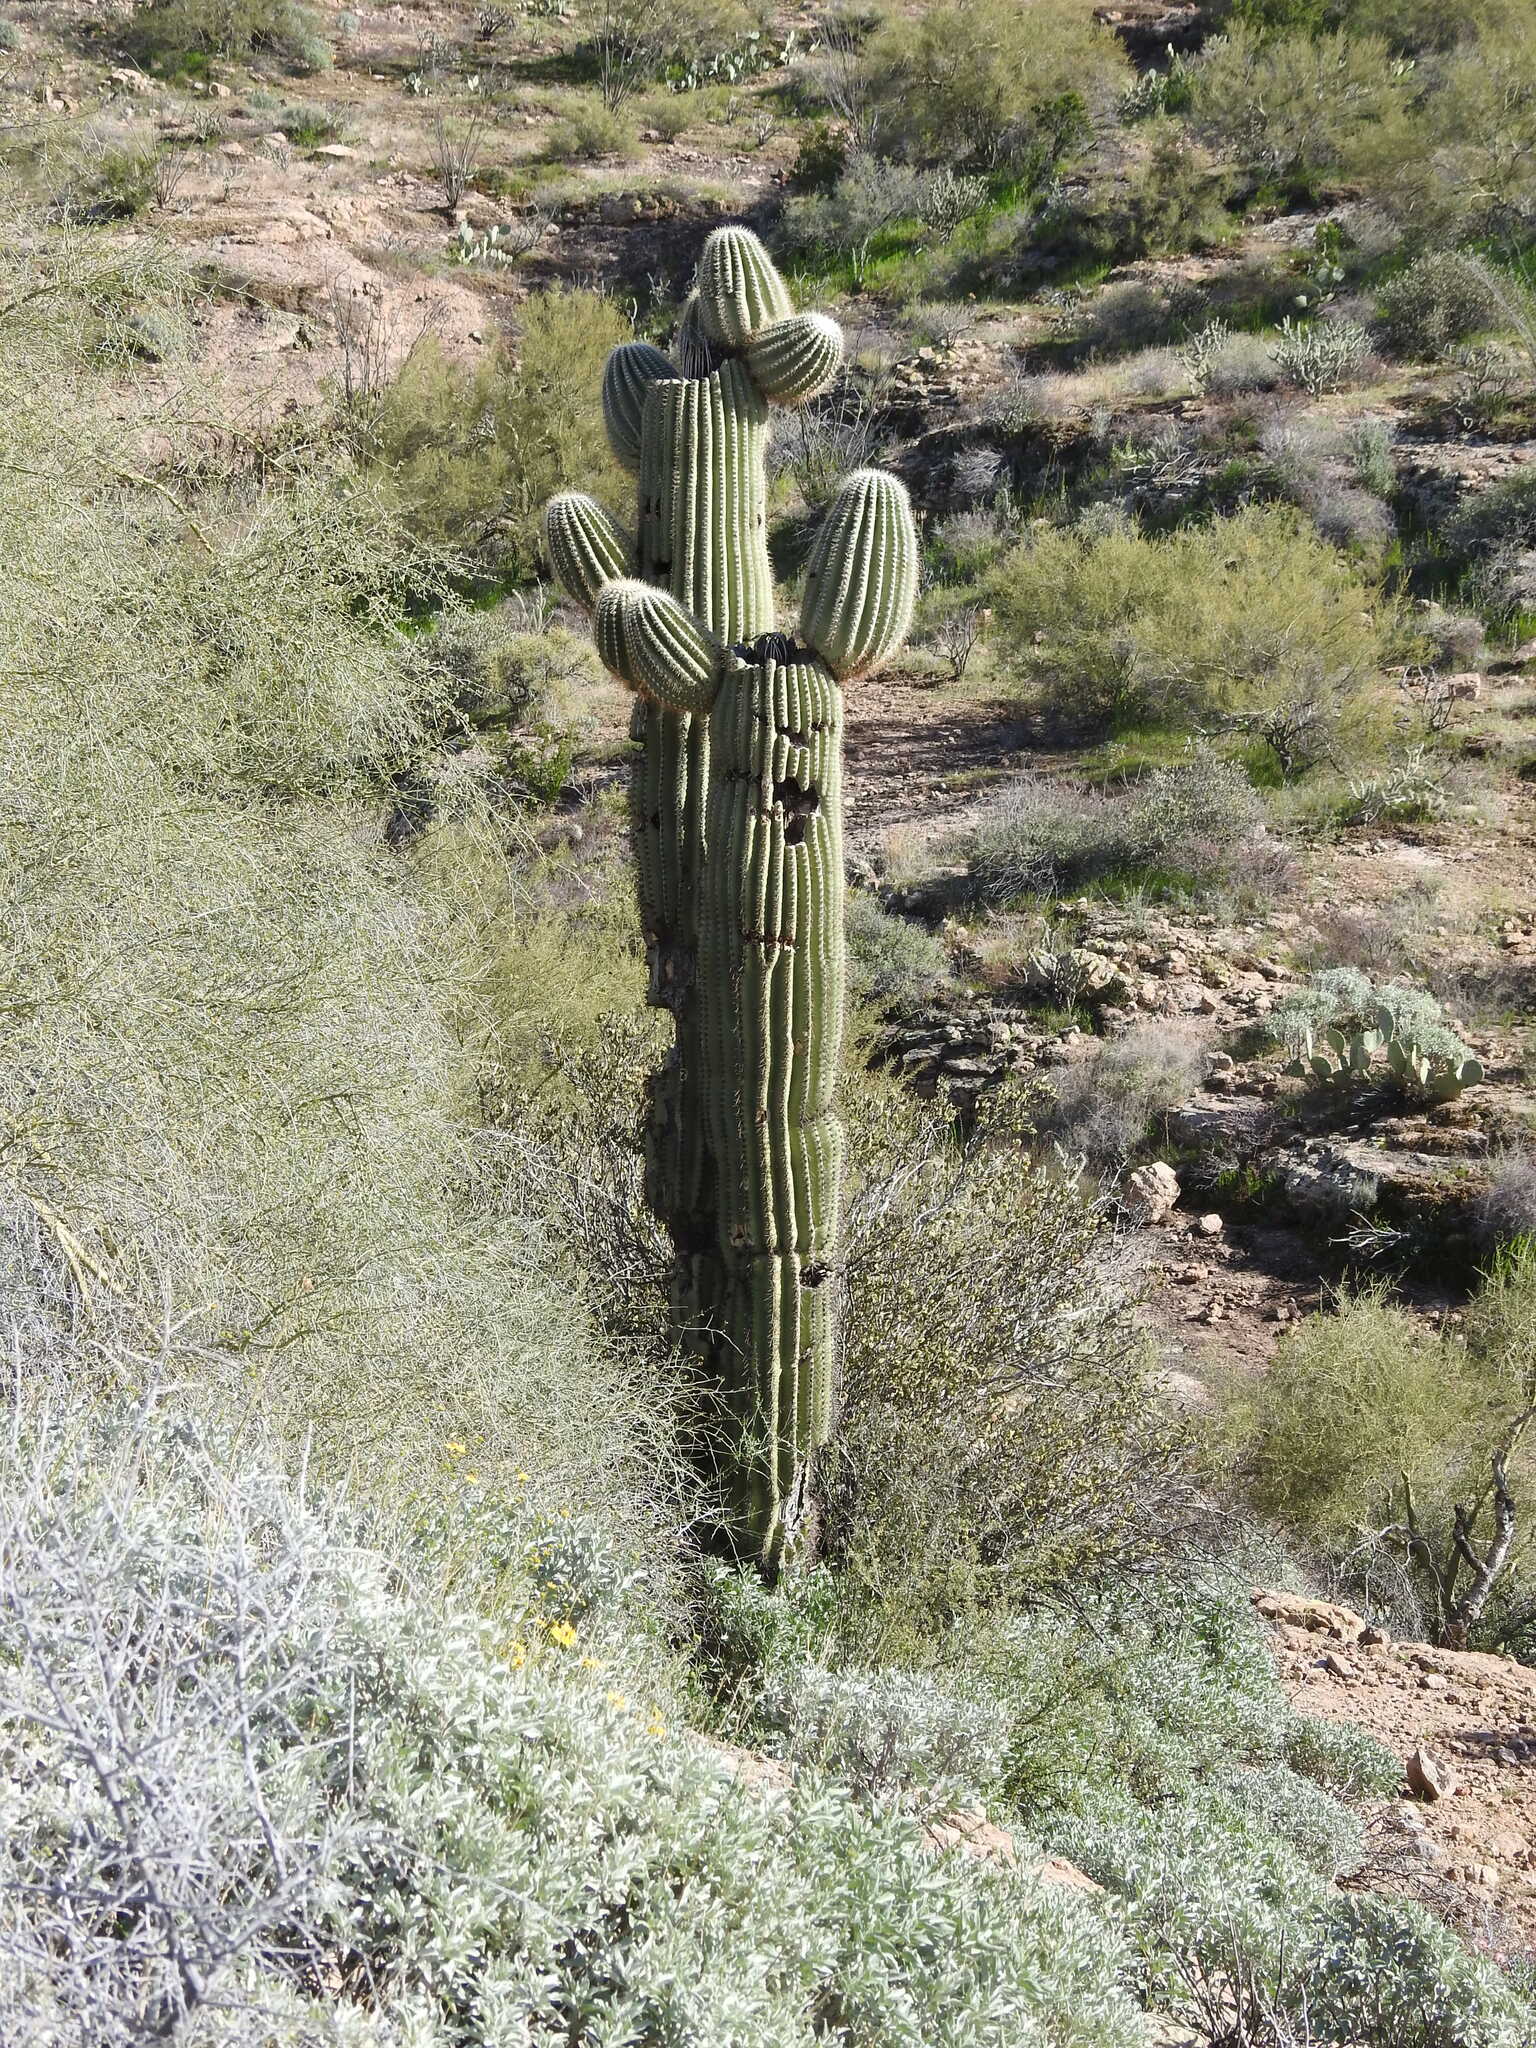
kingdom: Plantae
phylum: Tracheophyta
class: Magnoliopsida
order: Caryophyllales
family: Cactaceae
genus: Carnegiea
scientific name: Carnegiea gigantea
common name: Saguaro
